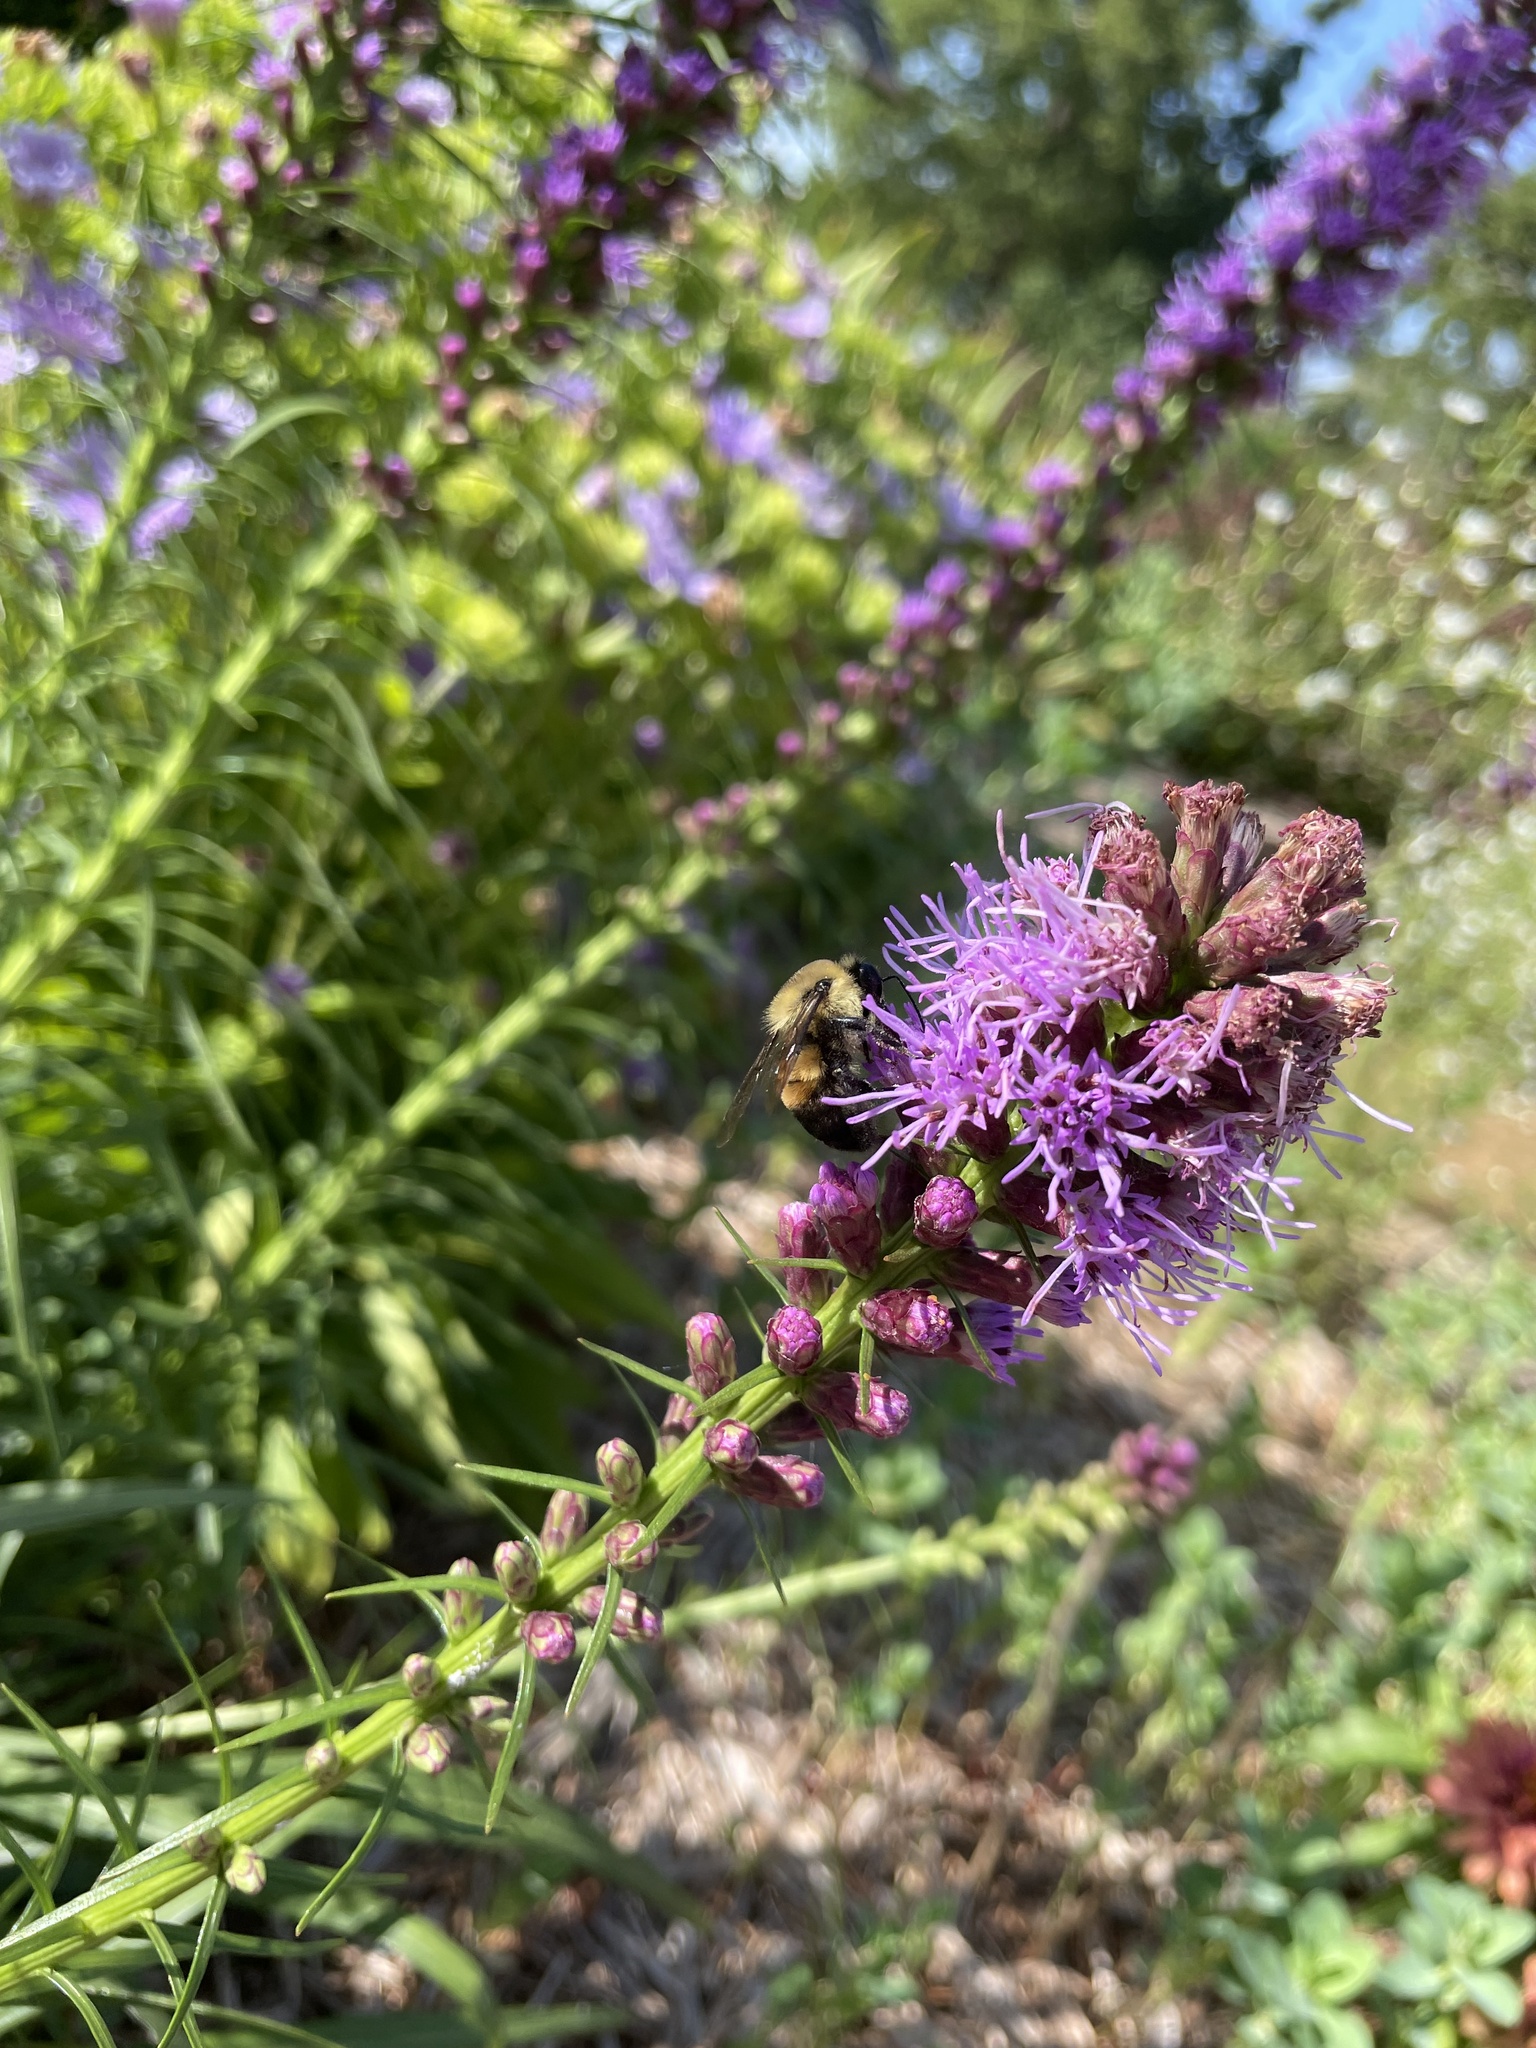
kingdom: Animalia
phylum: Arthropoda
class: Insecta
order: Hymenoptera
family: Apidae
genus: Bombus
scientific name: Bombus griseocollis
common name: Brown-belted bumble bee
